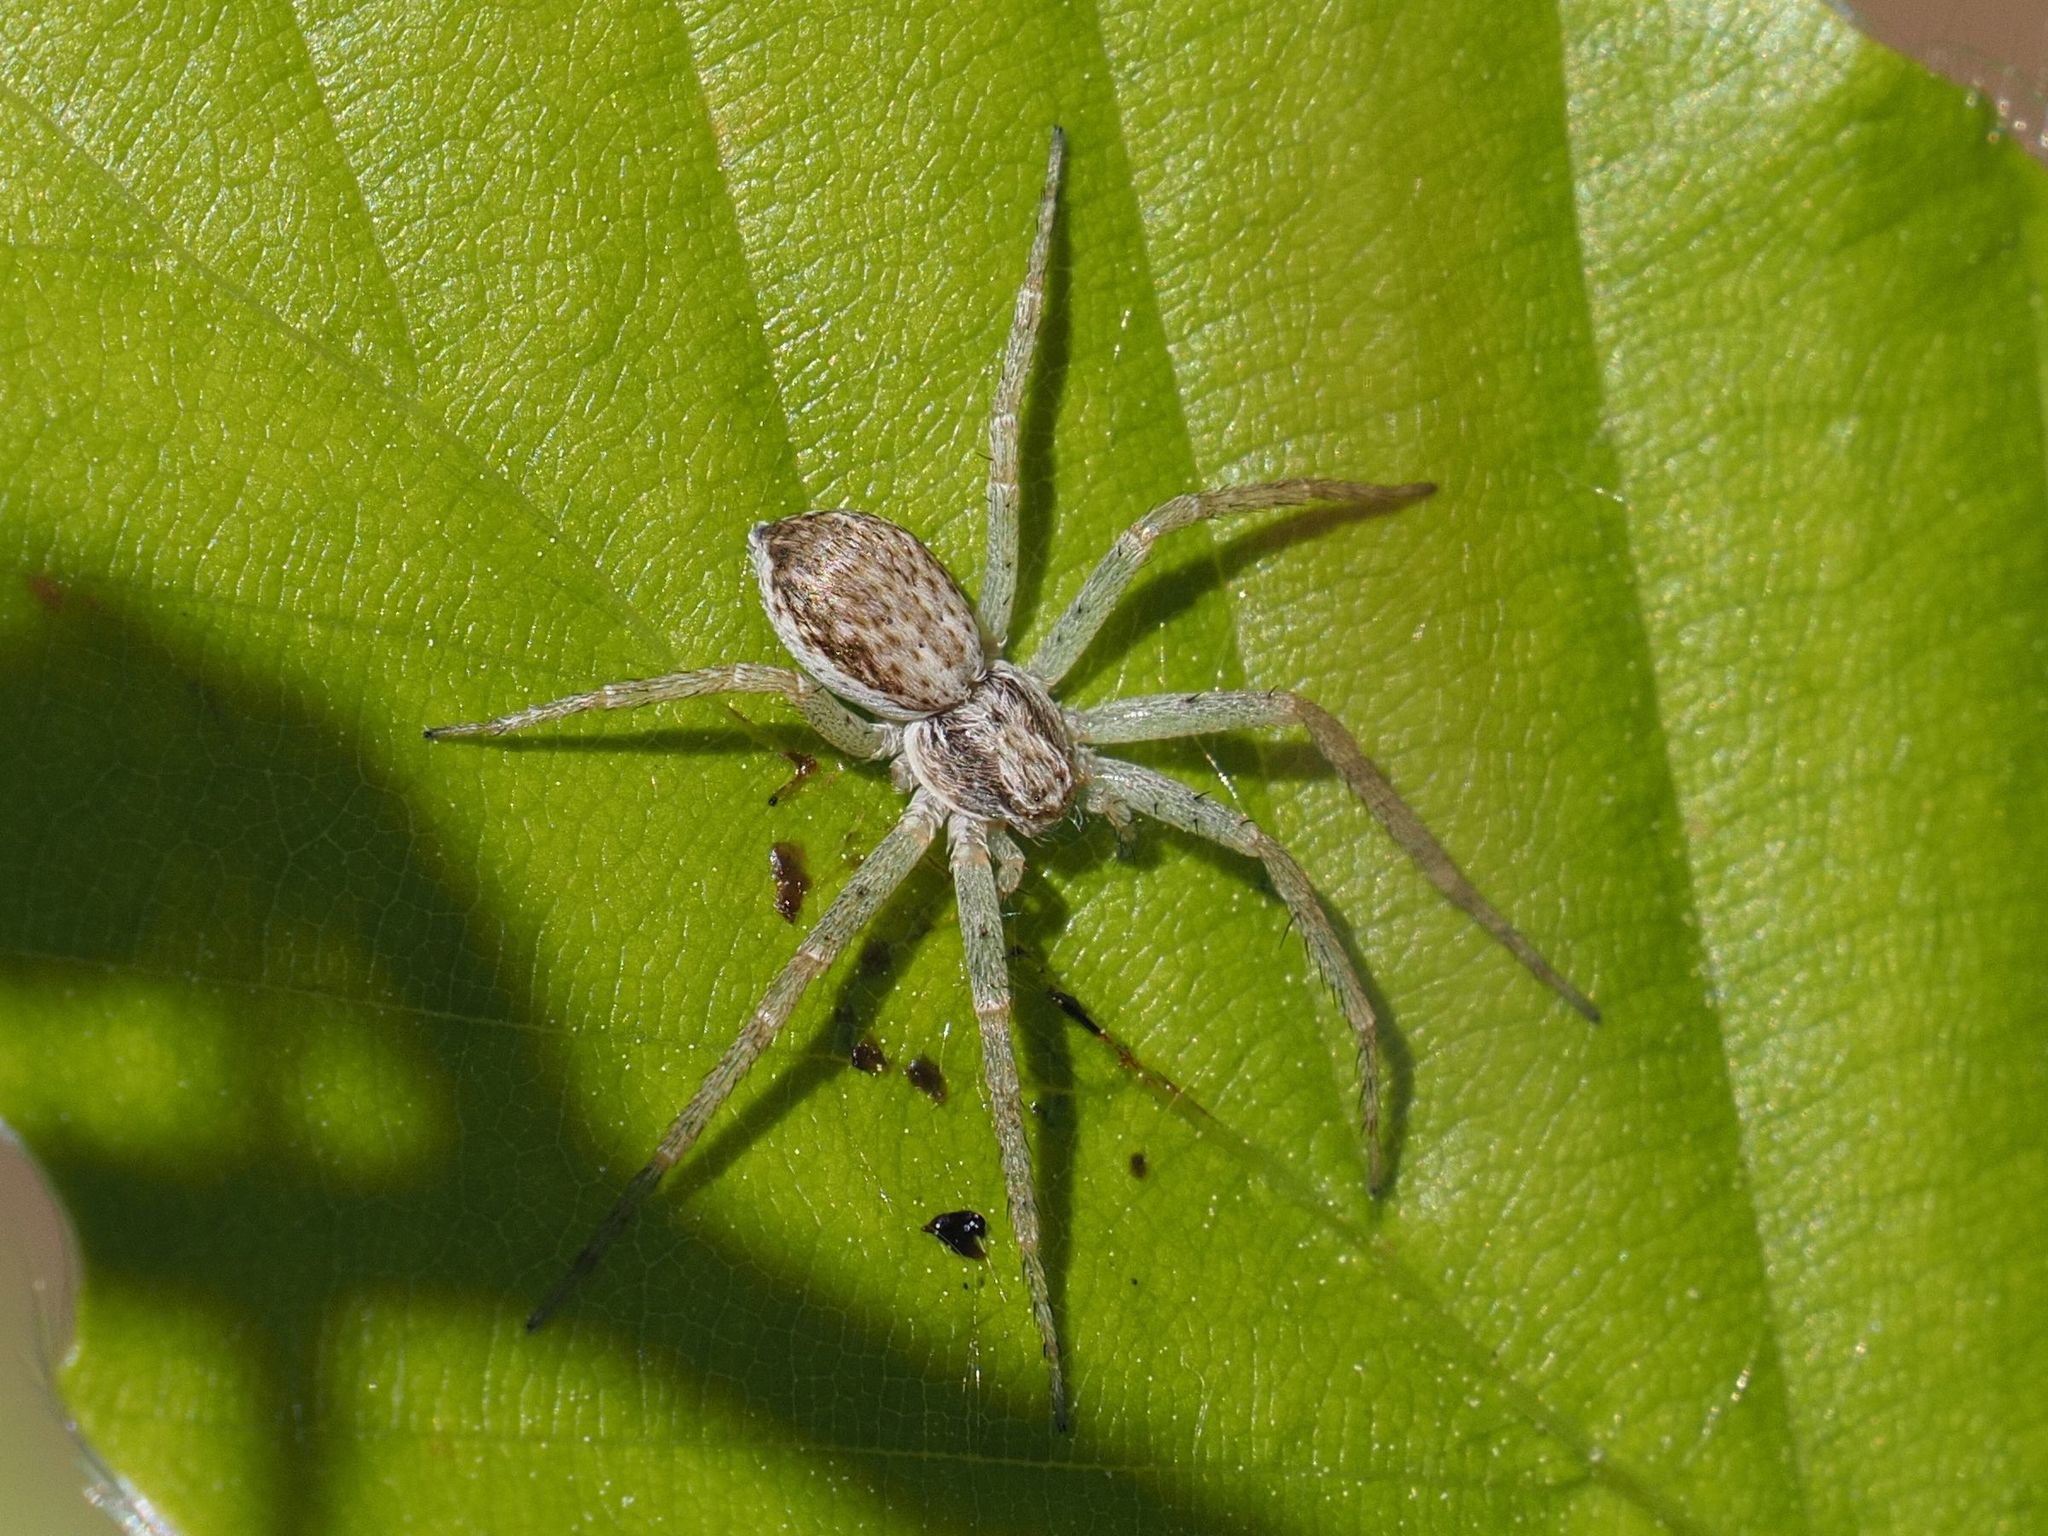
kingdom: Animalia
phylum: Arthropoda
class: Arachnida
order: Araneae
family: Philodromidae
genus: Philodromus
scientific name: Philodromus dispar
